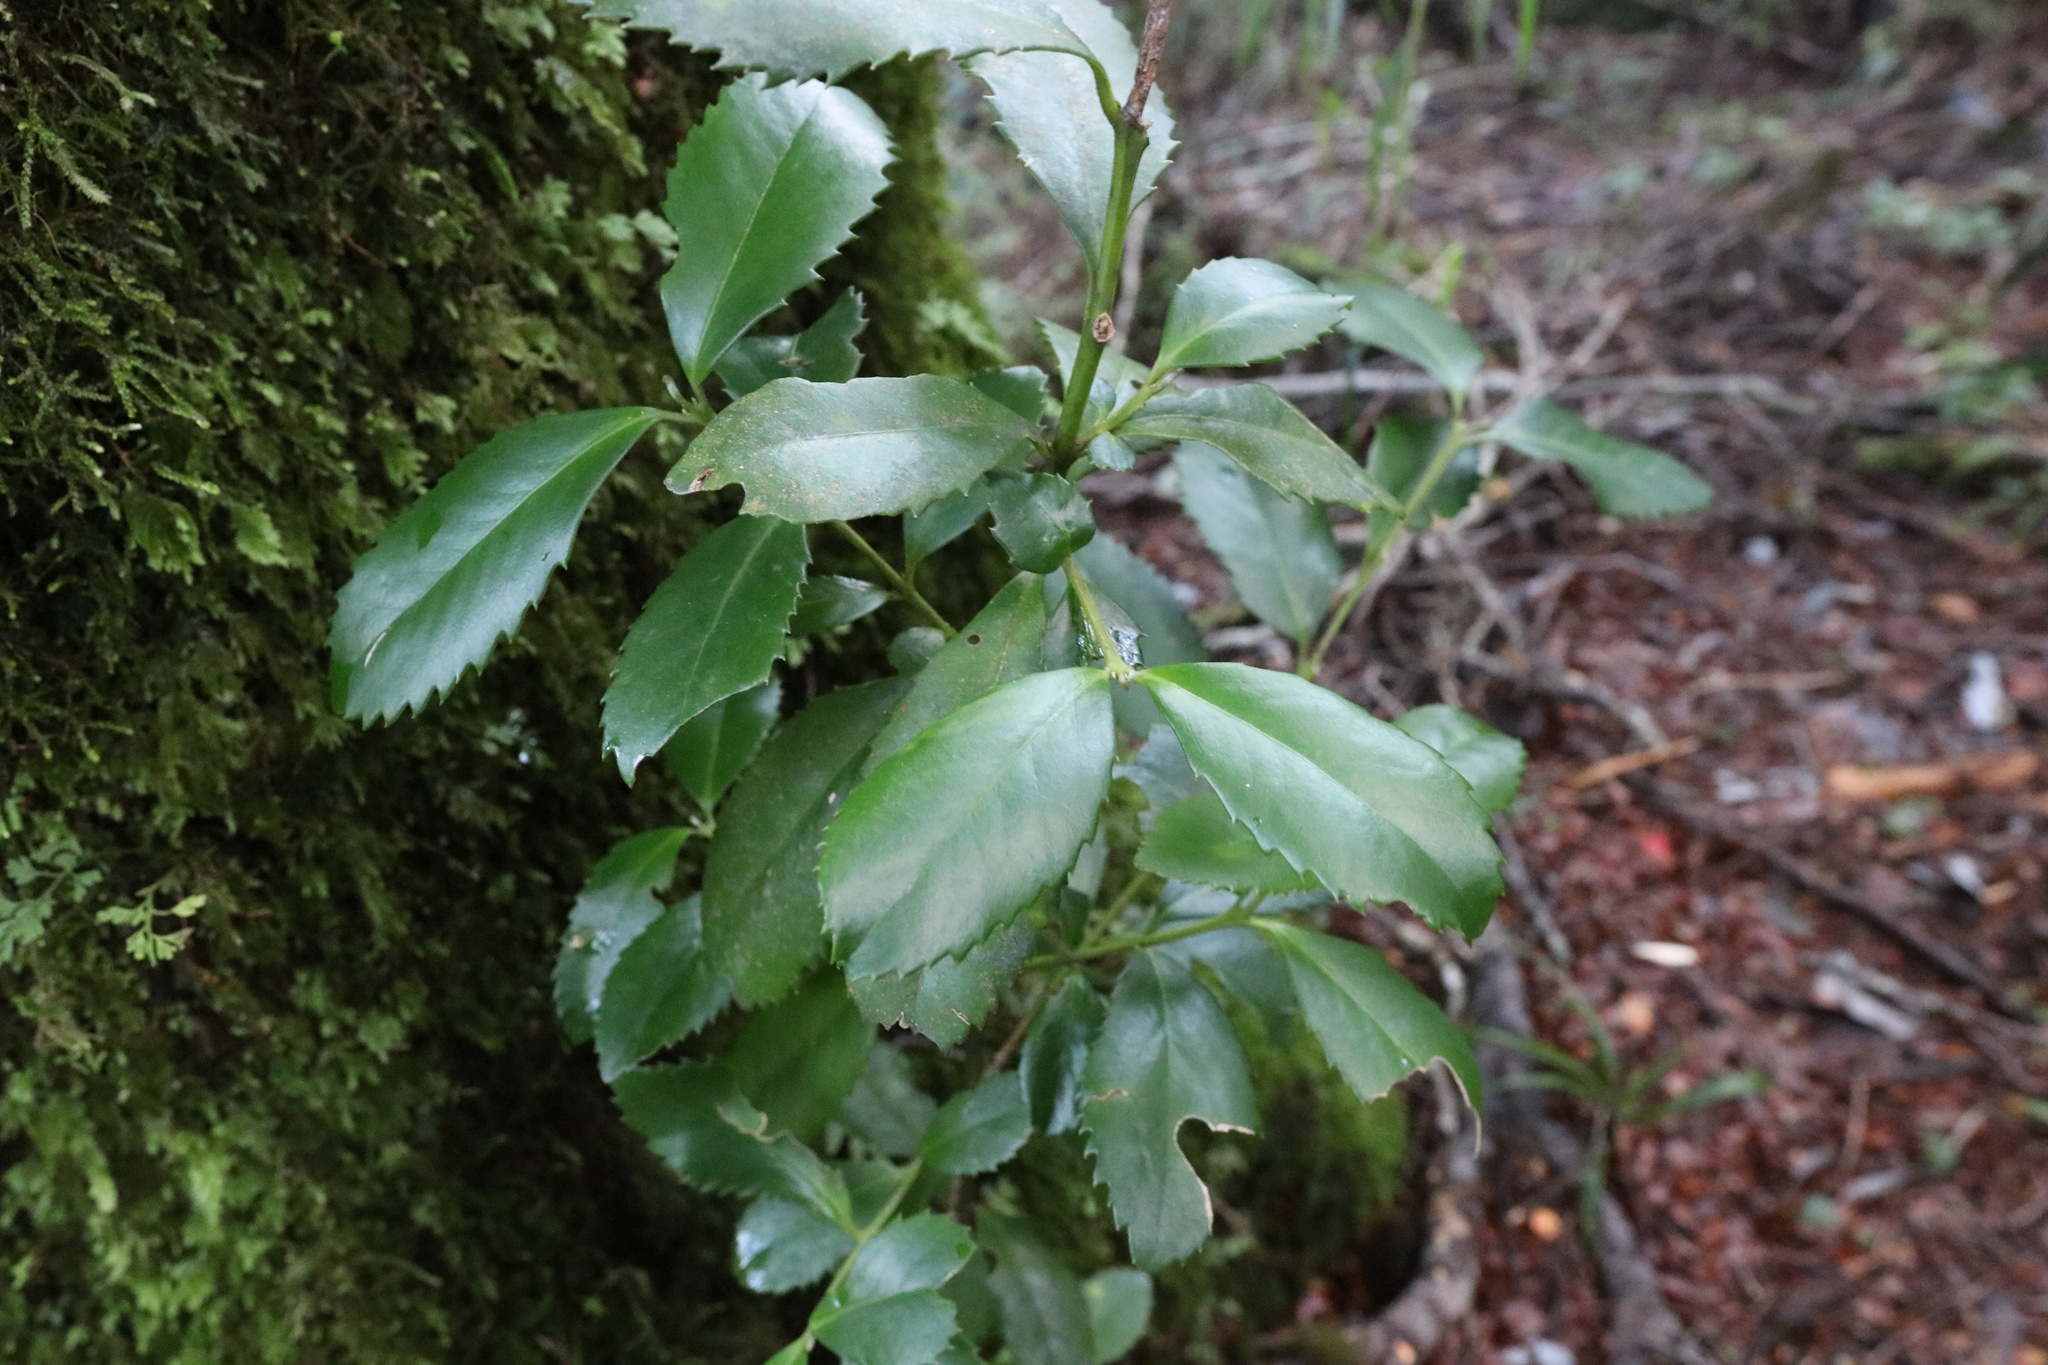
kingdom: Plantae
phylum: Tracheophyta
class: Magnoliopsida
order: Laurales
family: Atherospermataceae
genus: Laureliopsis
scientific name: Laureliopsis philippiana
